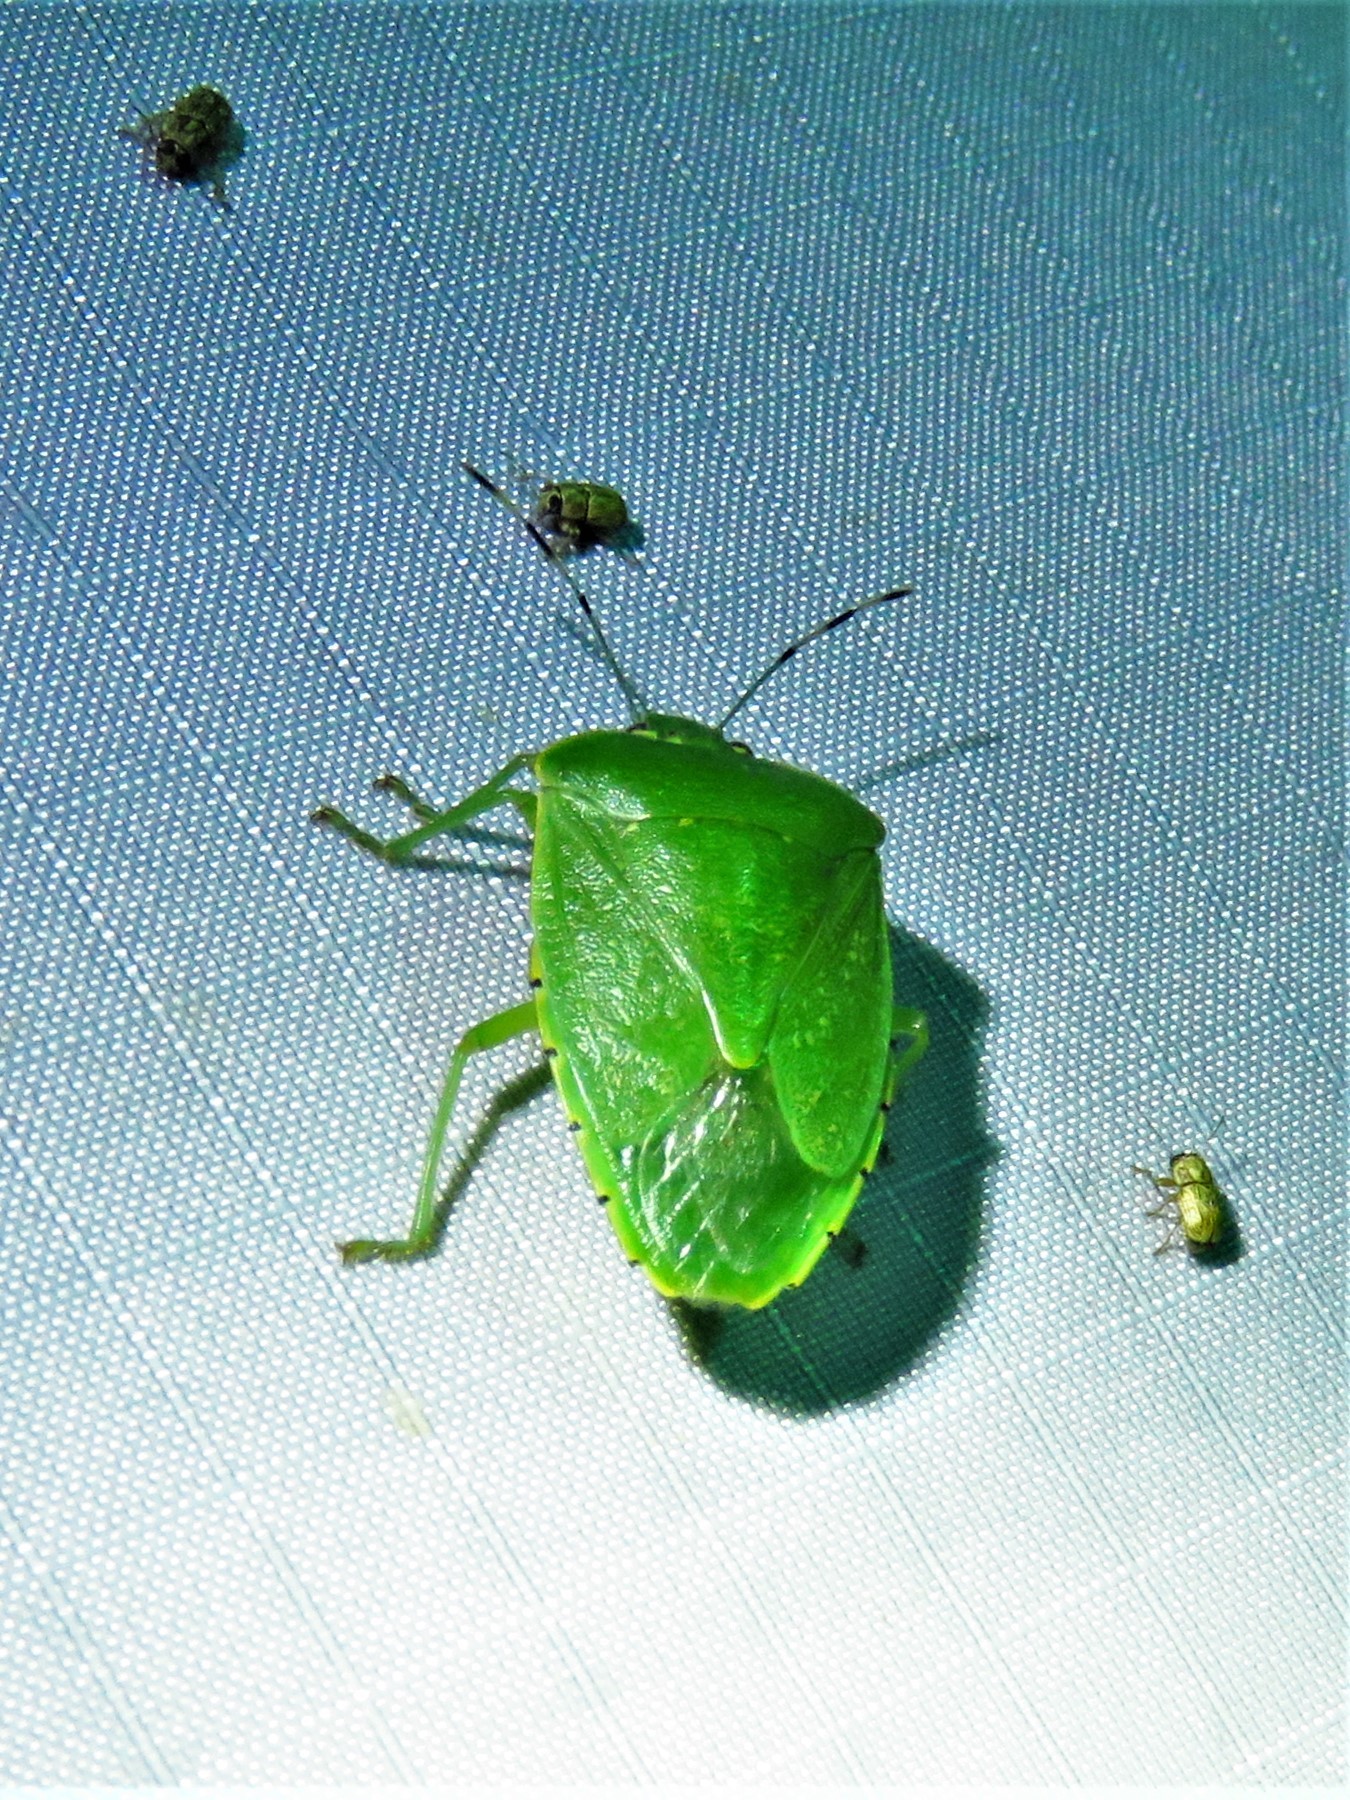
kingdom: Animalia
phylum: Arthropoda
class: Insecta
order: Hemiptera
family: Pentatomidae
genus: Chinavia
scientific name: Chinavia hilaris
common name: Green stink bug
